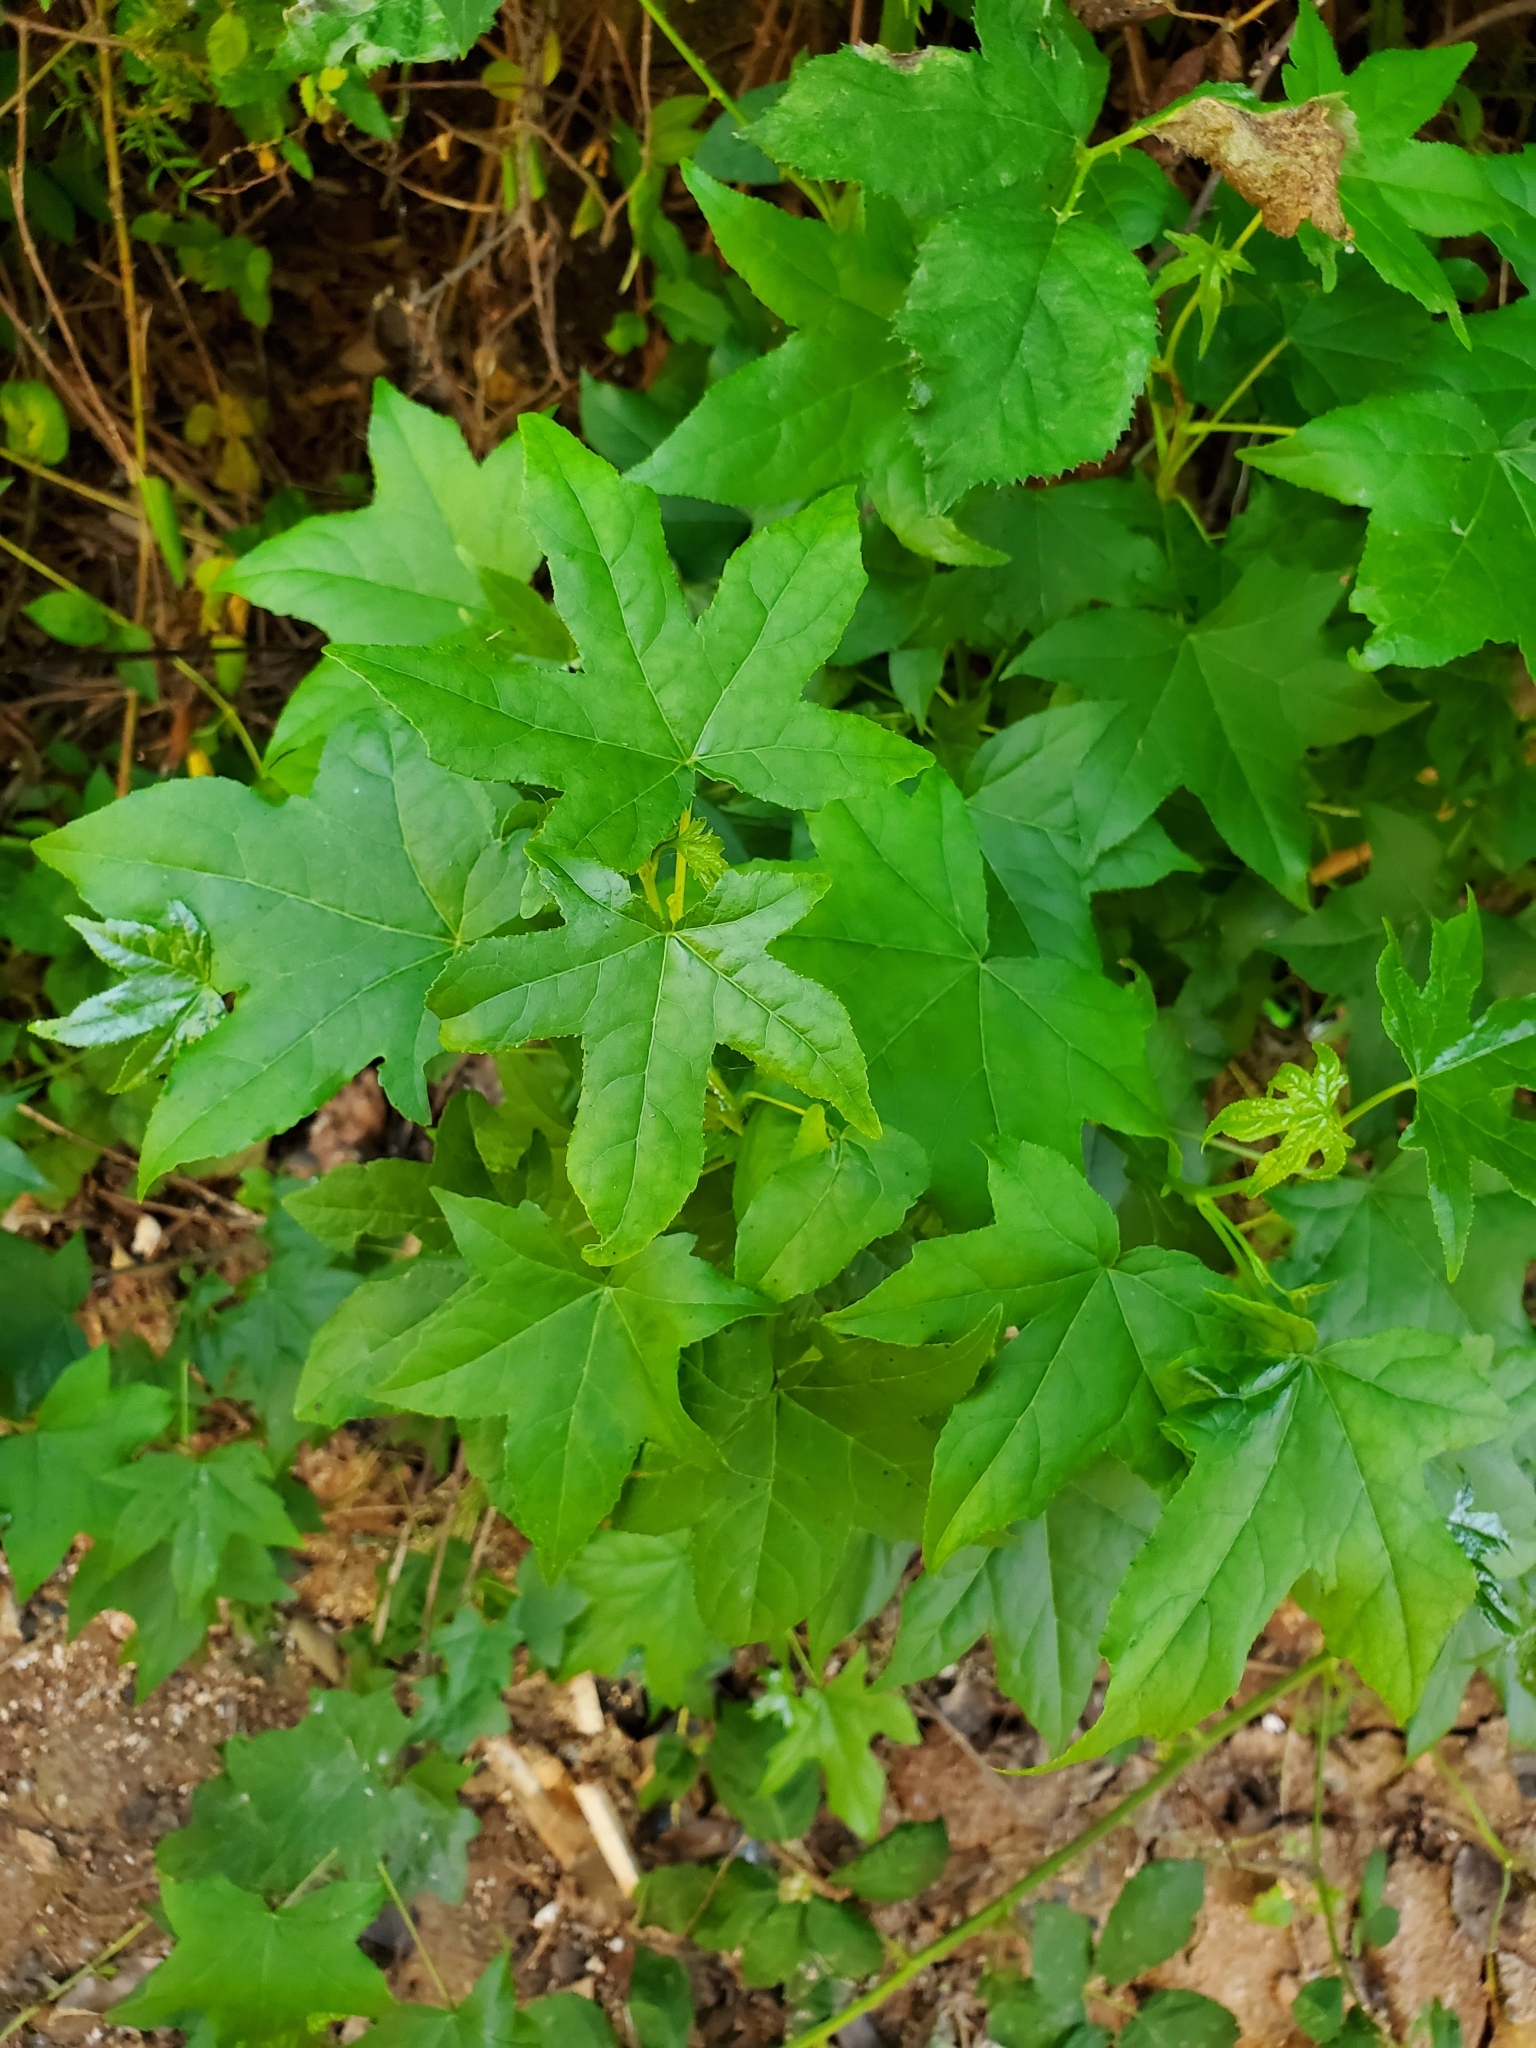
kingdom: Plantae
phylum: Tracheophyta
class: Magnoliopsida
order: Saxifragales
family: Altingiaceae
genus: Liquidambar
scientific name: Liquidambar styraciflua
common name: Sweet gum
